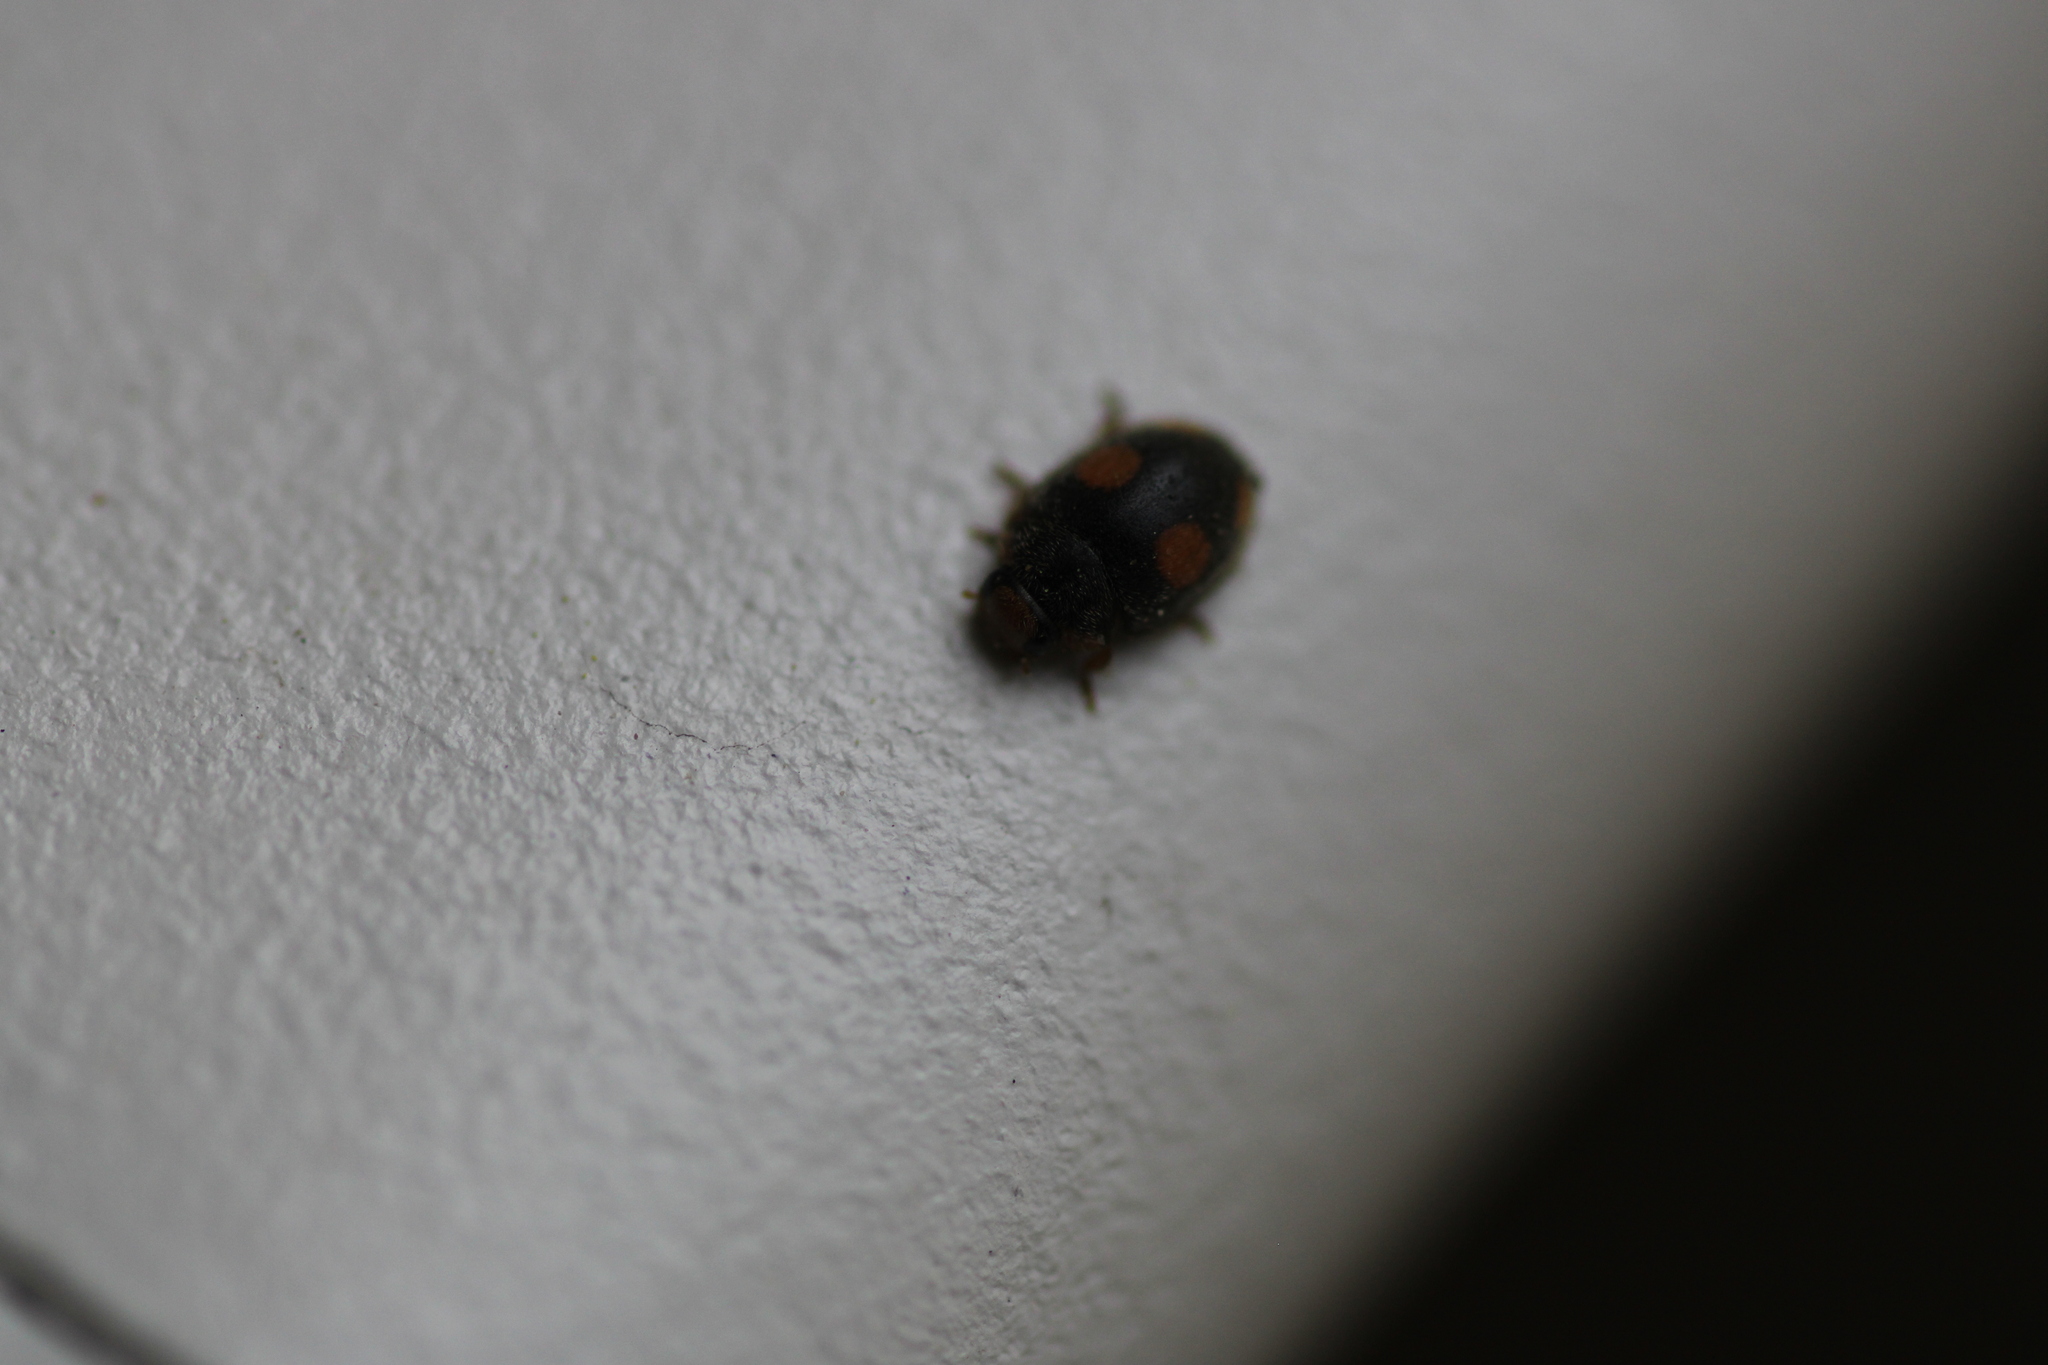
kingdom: Animalia
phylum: Arthropoda
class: Insecta
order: Coleoptera
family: Coccinellidae
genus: Platynaspis
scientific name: Platynaspis luteorubra
